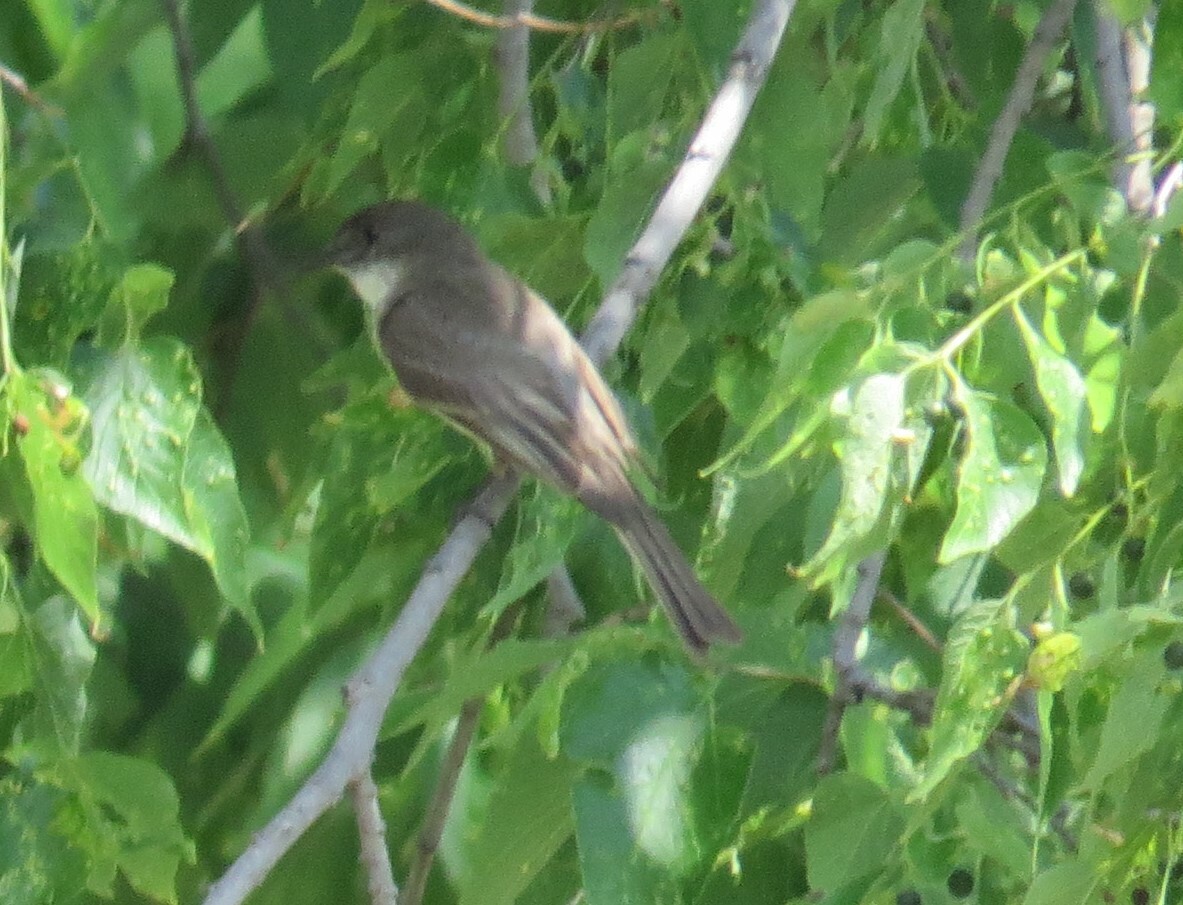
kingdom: Animalia
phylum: Chordata
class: Aves
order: Passeriformes
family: Tyrannidae
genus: Sayornis
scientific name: Sayornis phoebe
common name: Eastern phoebe
